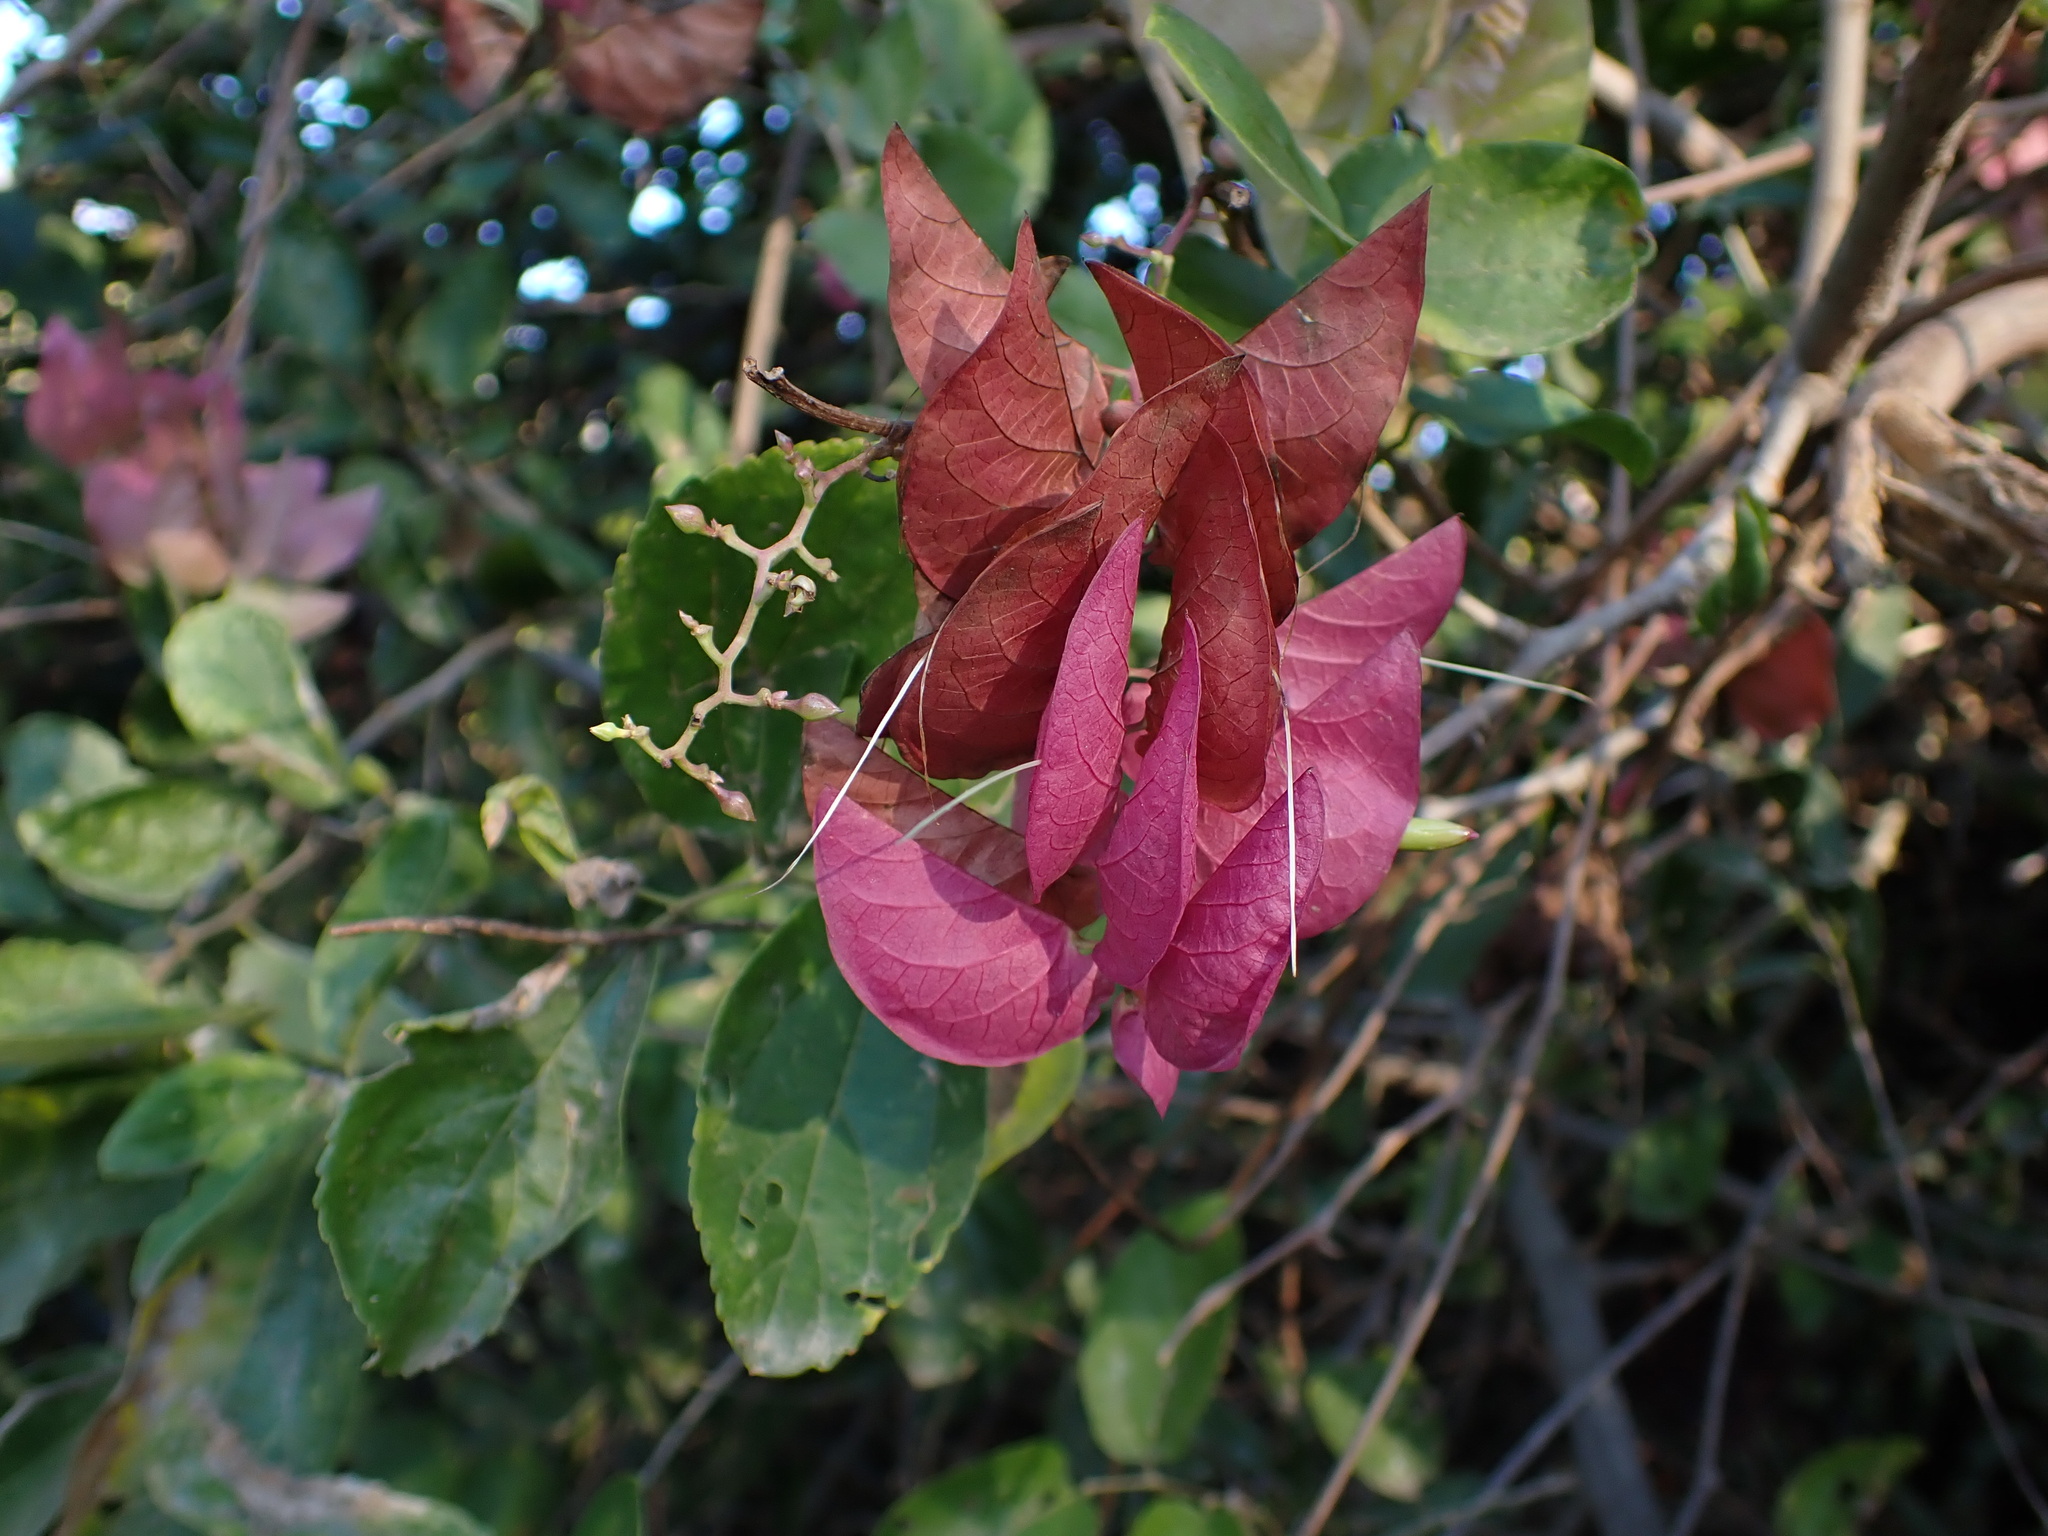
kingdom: Plantae
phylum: Tracheophyta
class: Magnoliopsida
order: Solanales
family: Convolvulaceae
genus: Ipomoea
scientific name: Ipomoea bracteata
